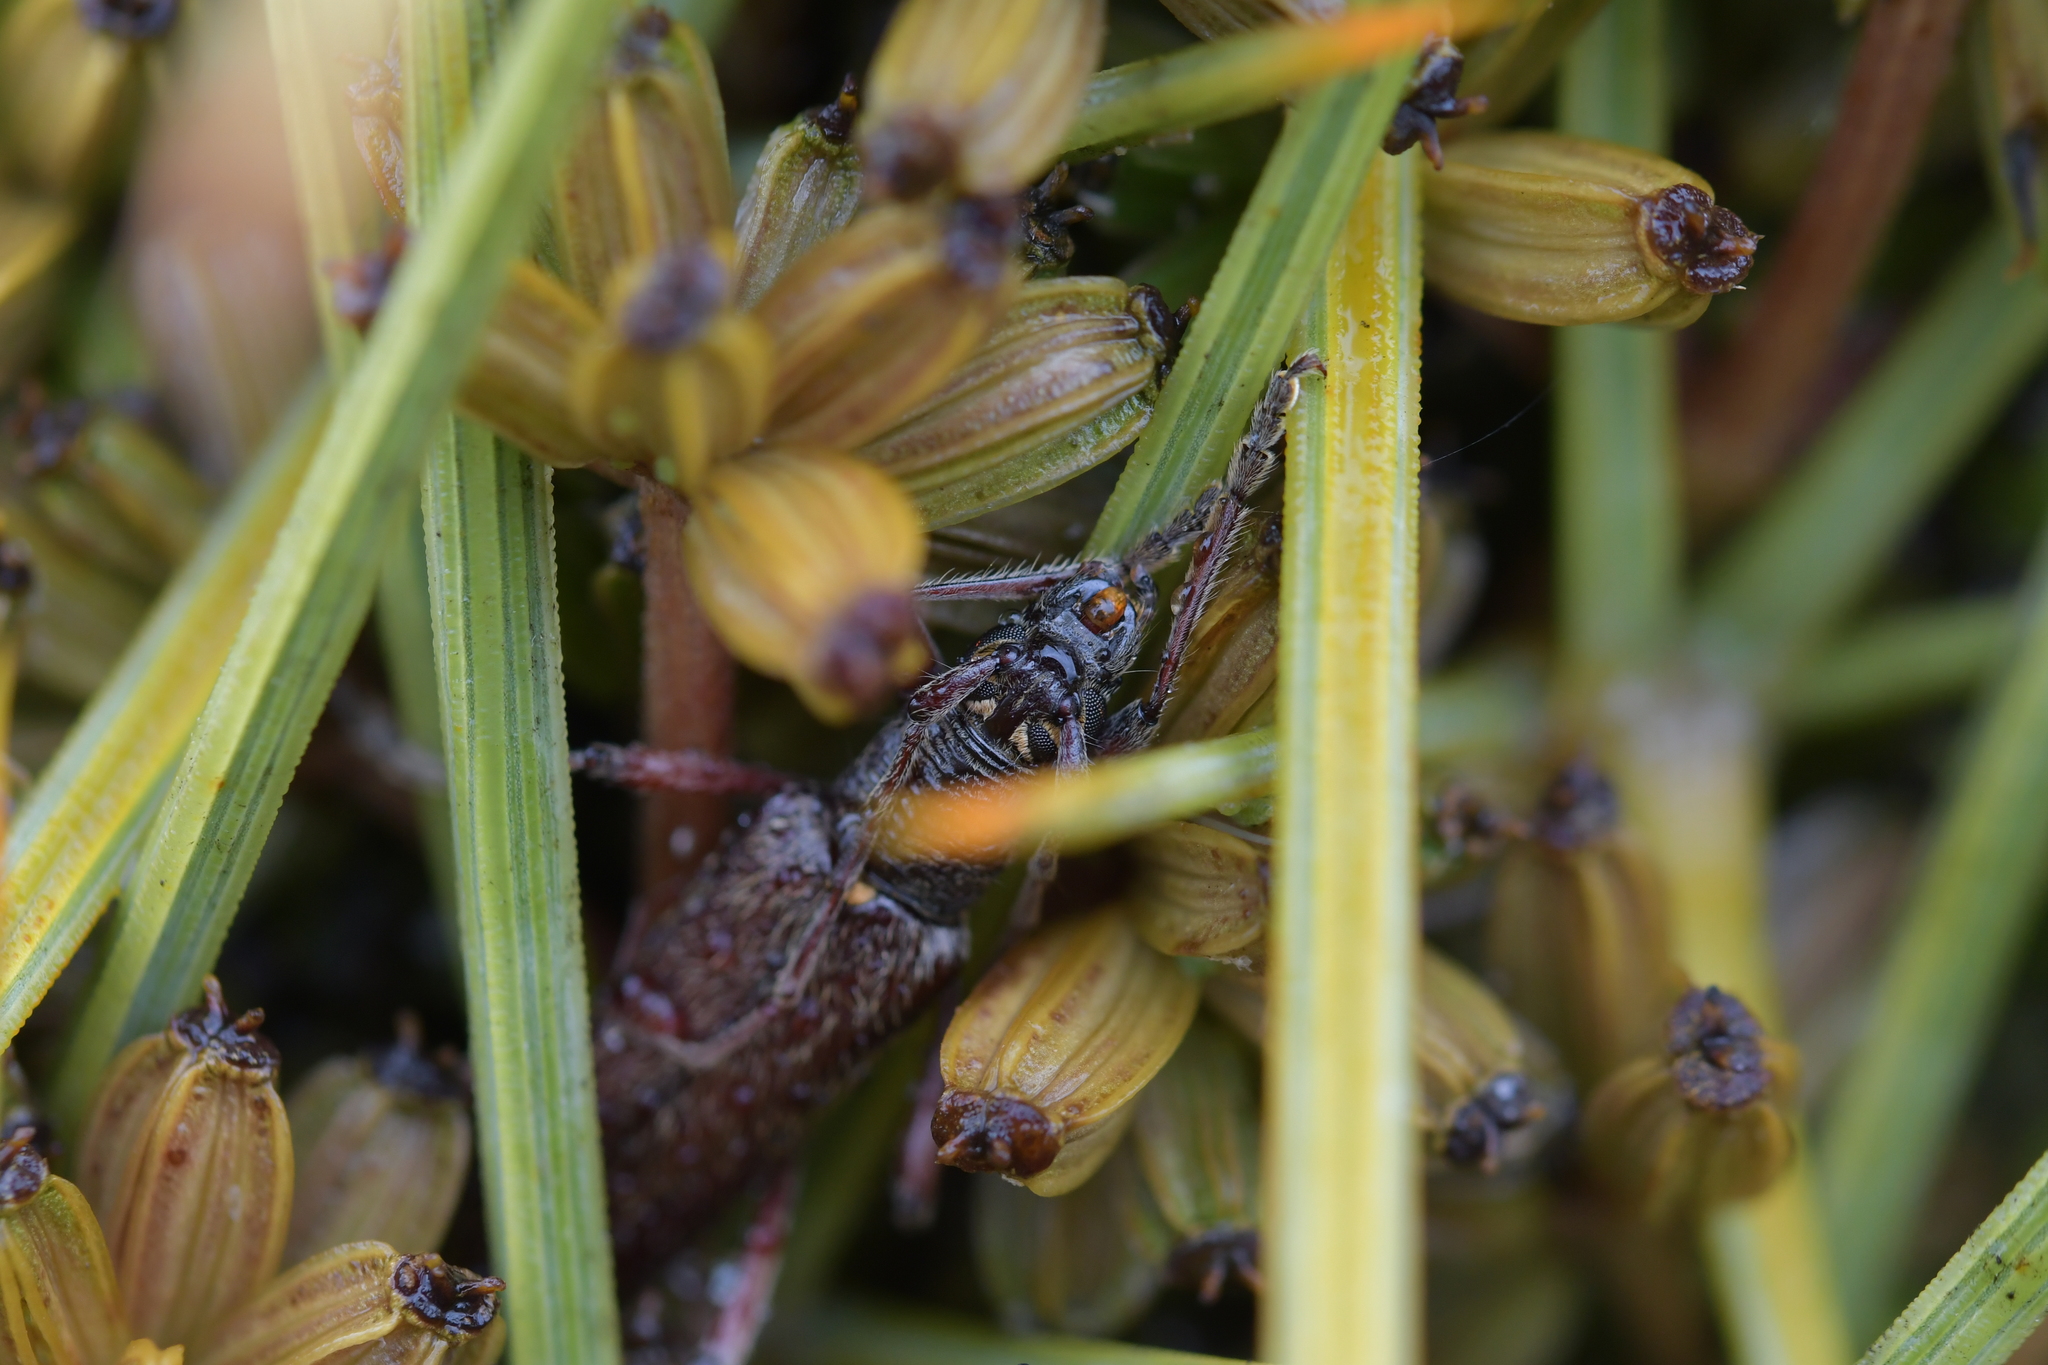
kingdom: Animalia
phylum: Arthropoda
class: Insecta
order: Coleoptera
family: Cerambycidae
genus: Oemona
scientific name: Oemona hirta
